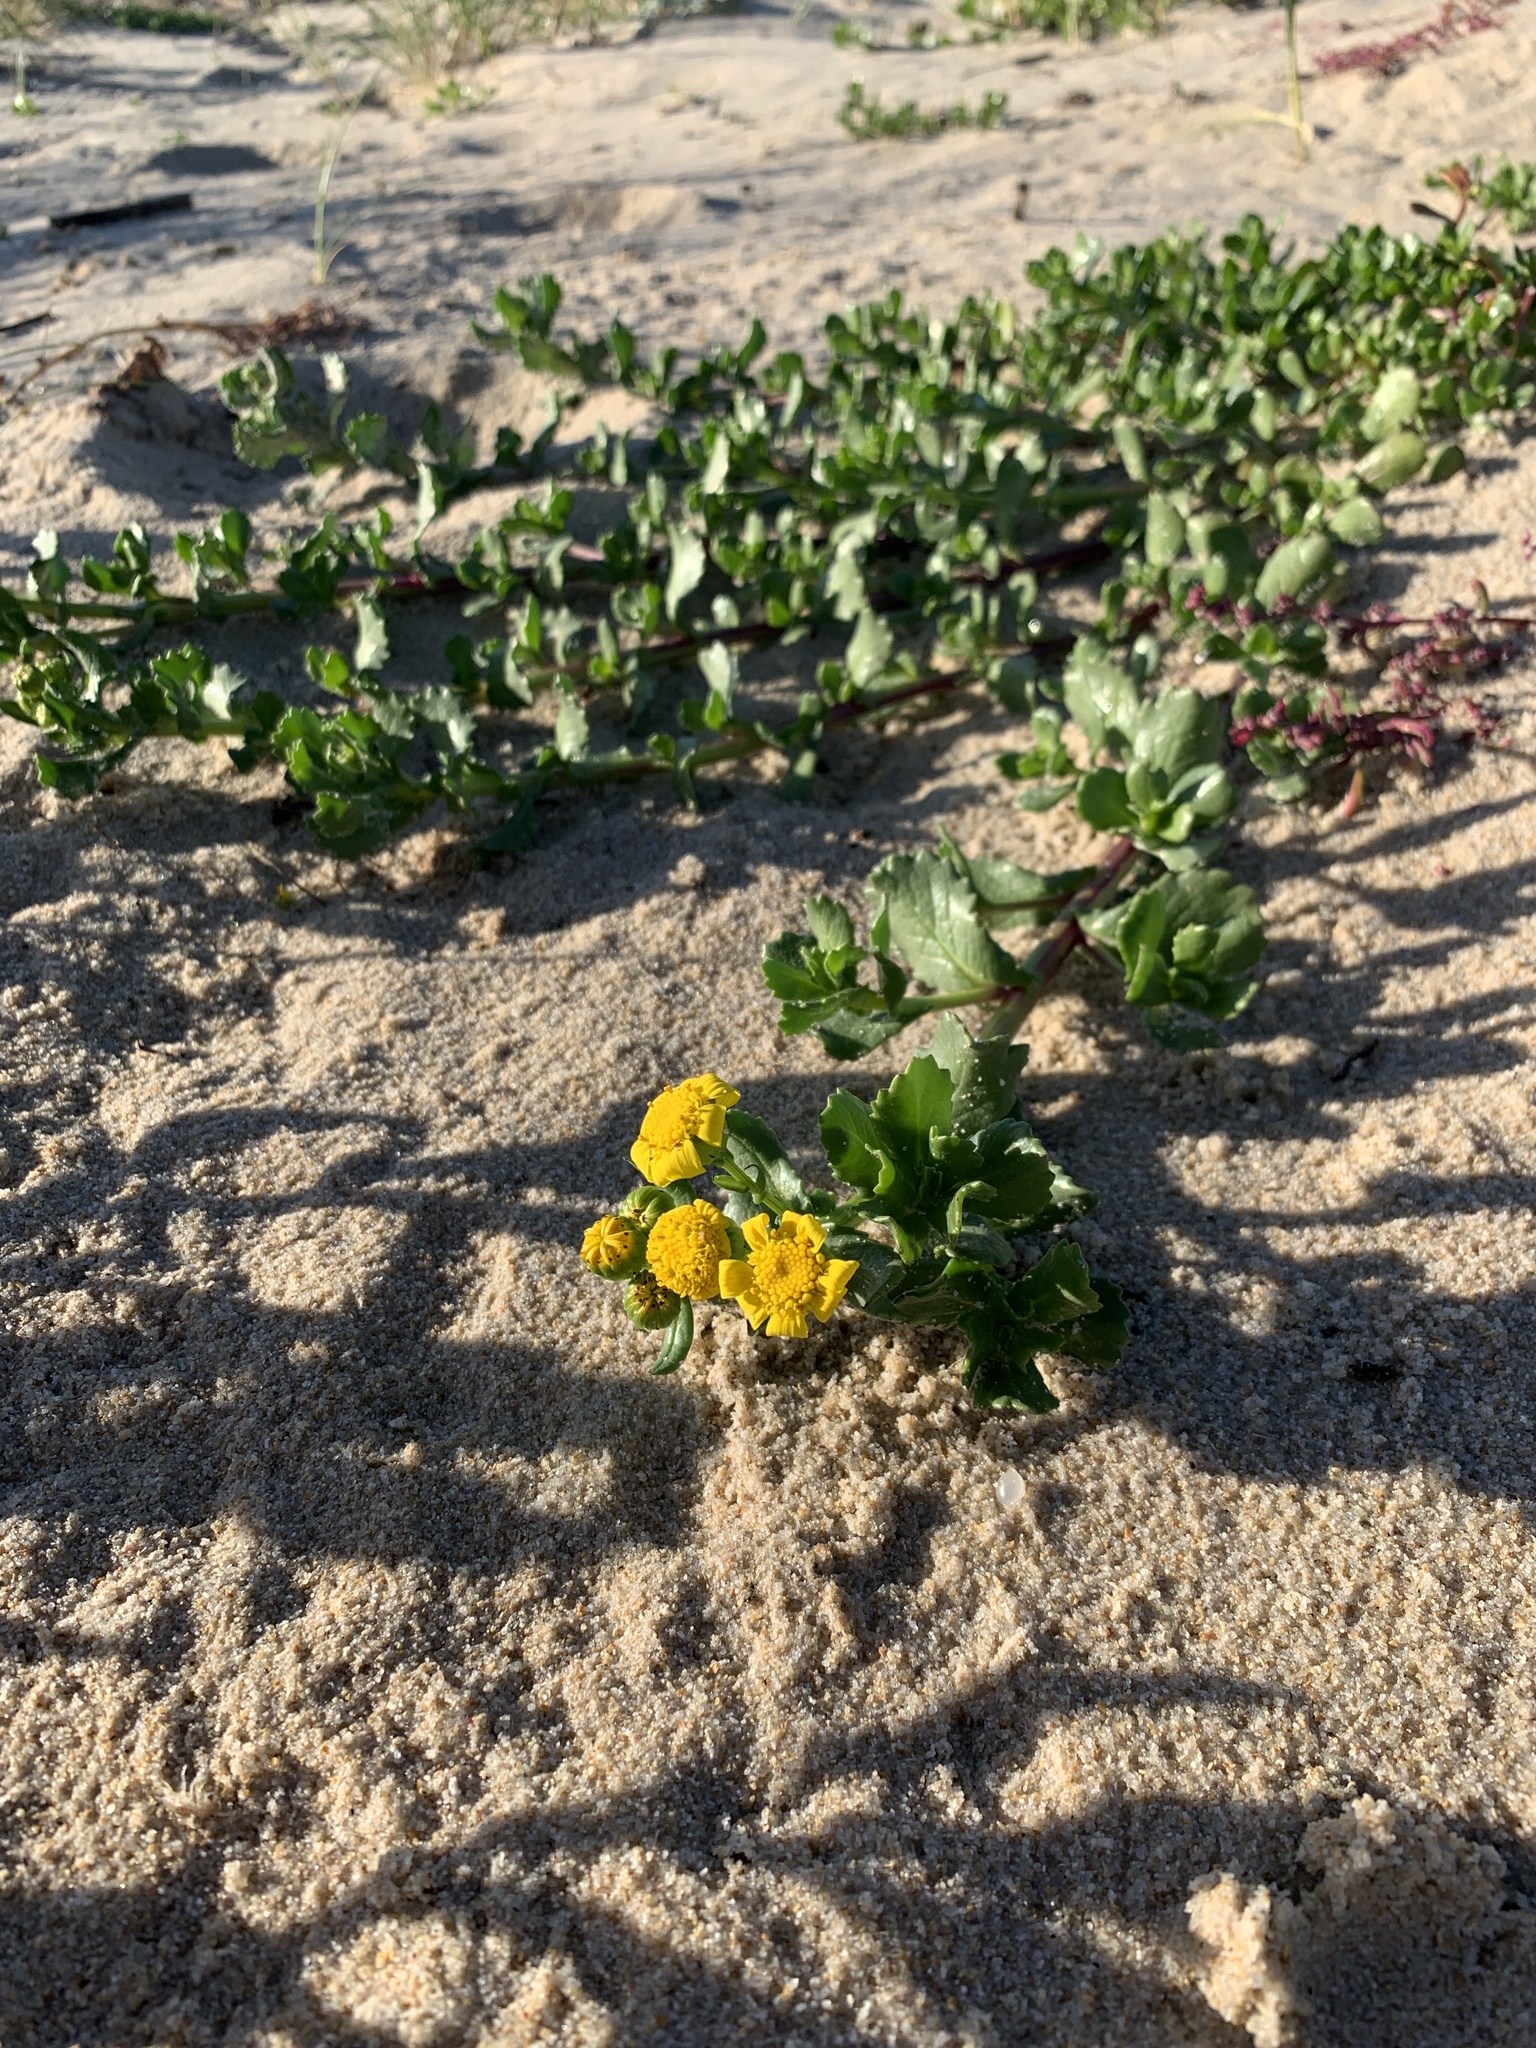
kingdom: Plantae
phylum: Tracheophyta
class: Magnoliopsida
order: Asterales
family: Asteraceae
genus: Senecio
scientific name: Senecio maritimus
